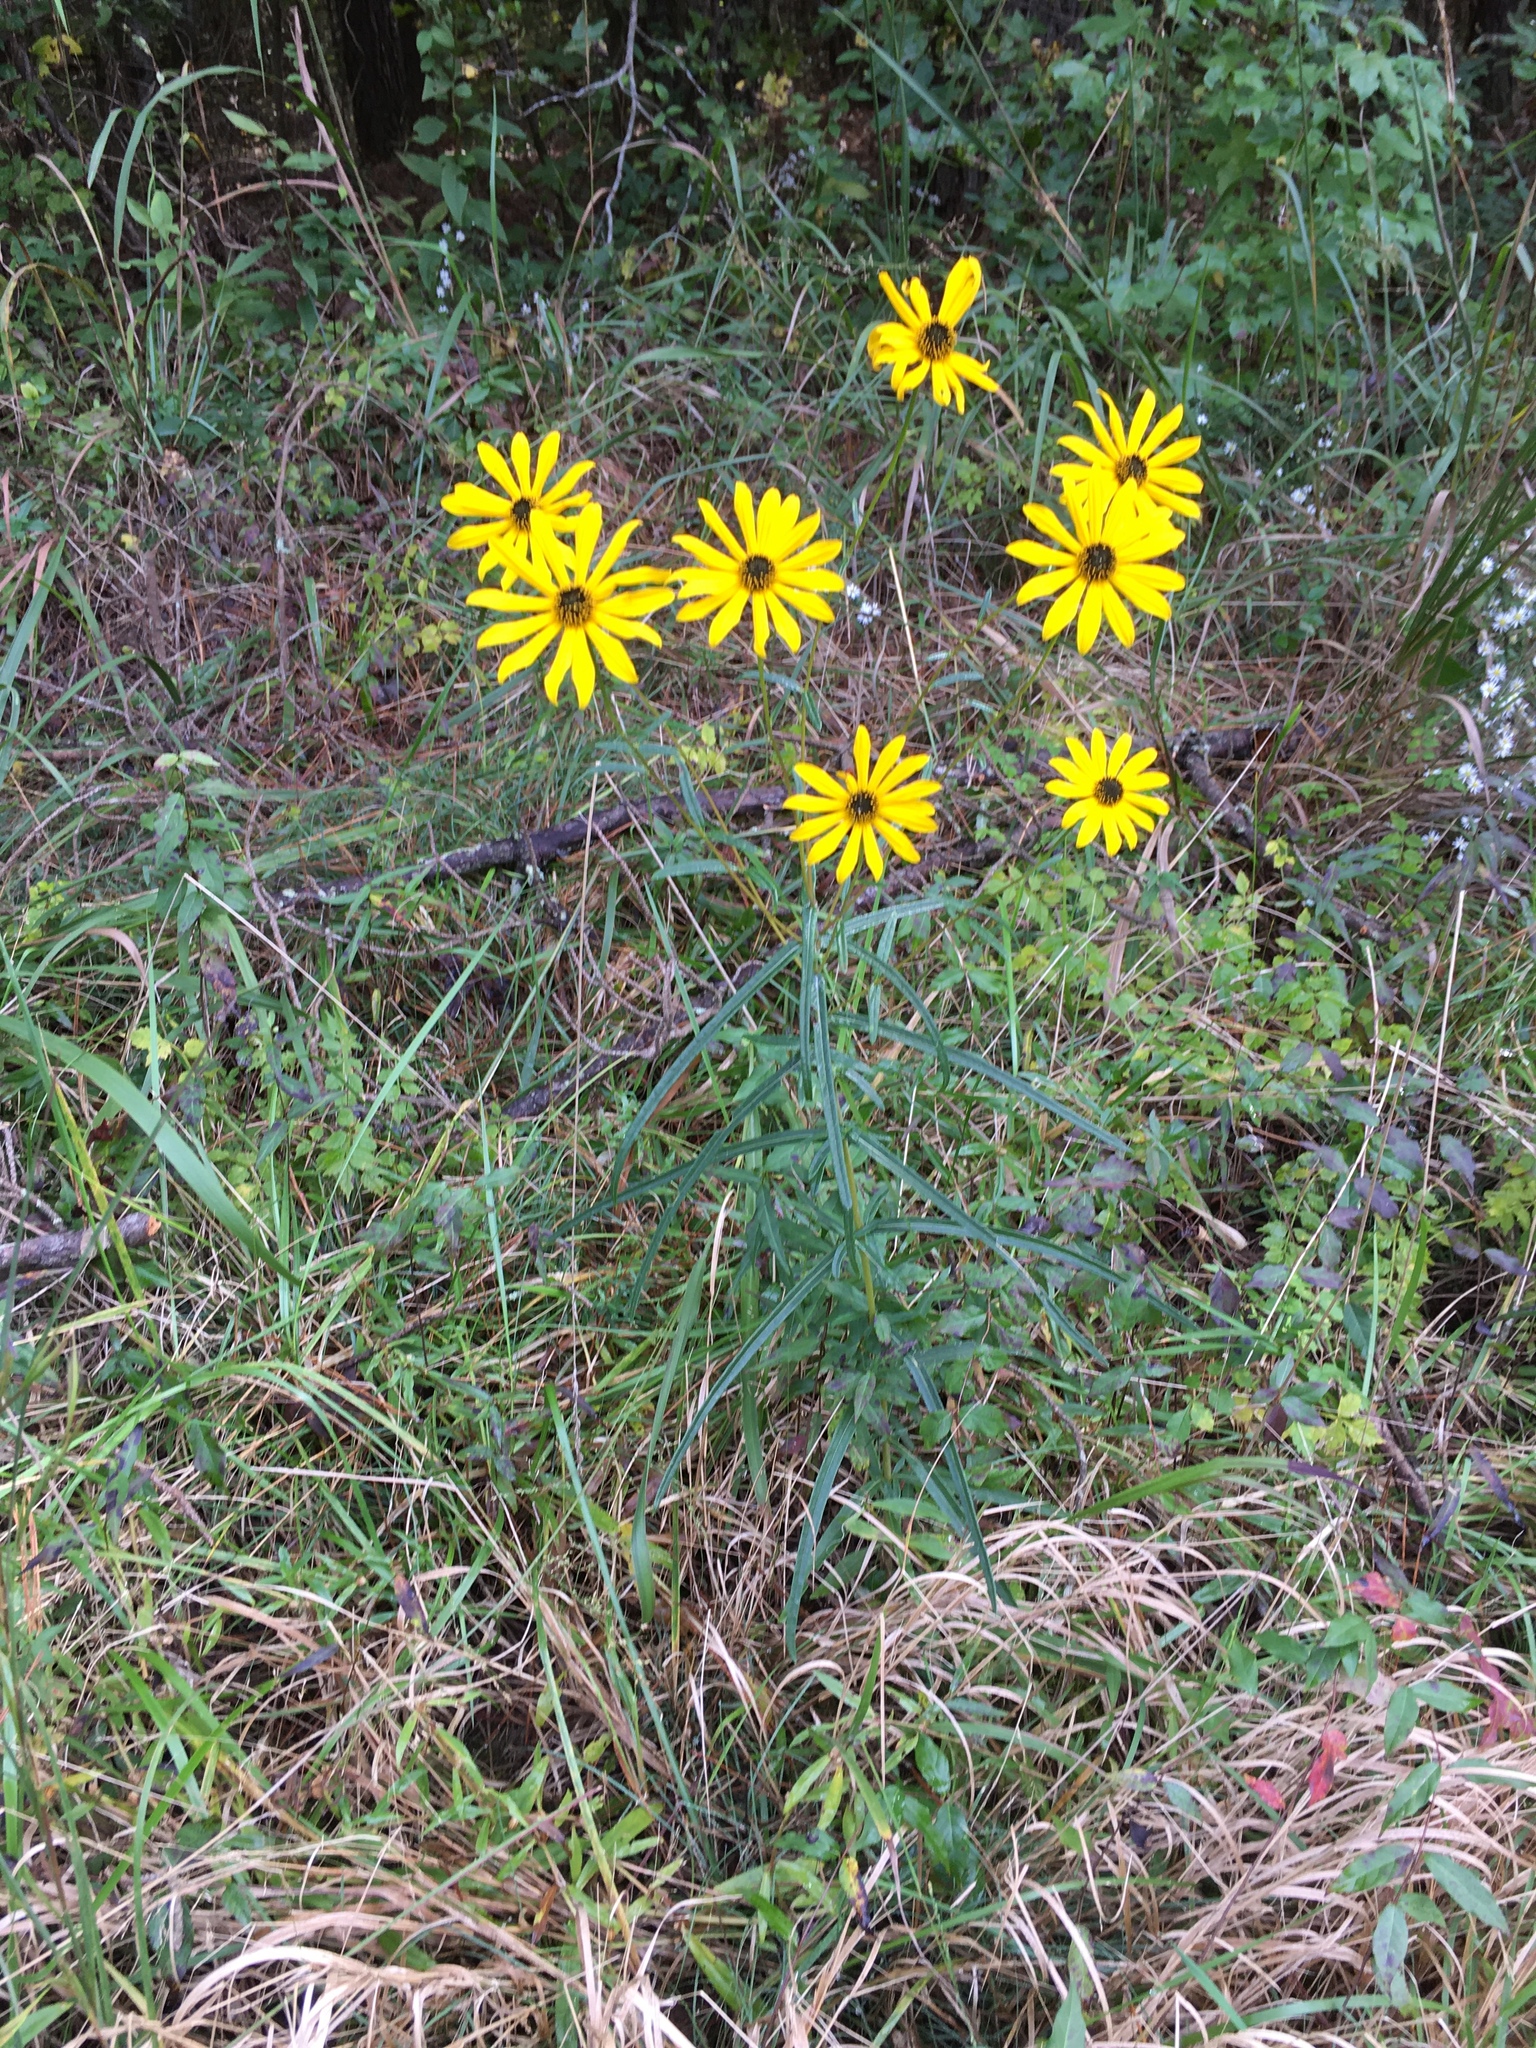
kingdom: Plantae
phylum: Tracheophyta
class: Magnoliopsida
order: Asterales
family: Asteraceae
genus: Helianthus
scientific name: Helianthus angustifolius
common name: Swamp sunflower
